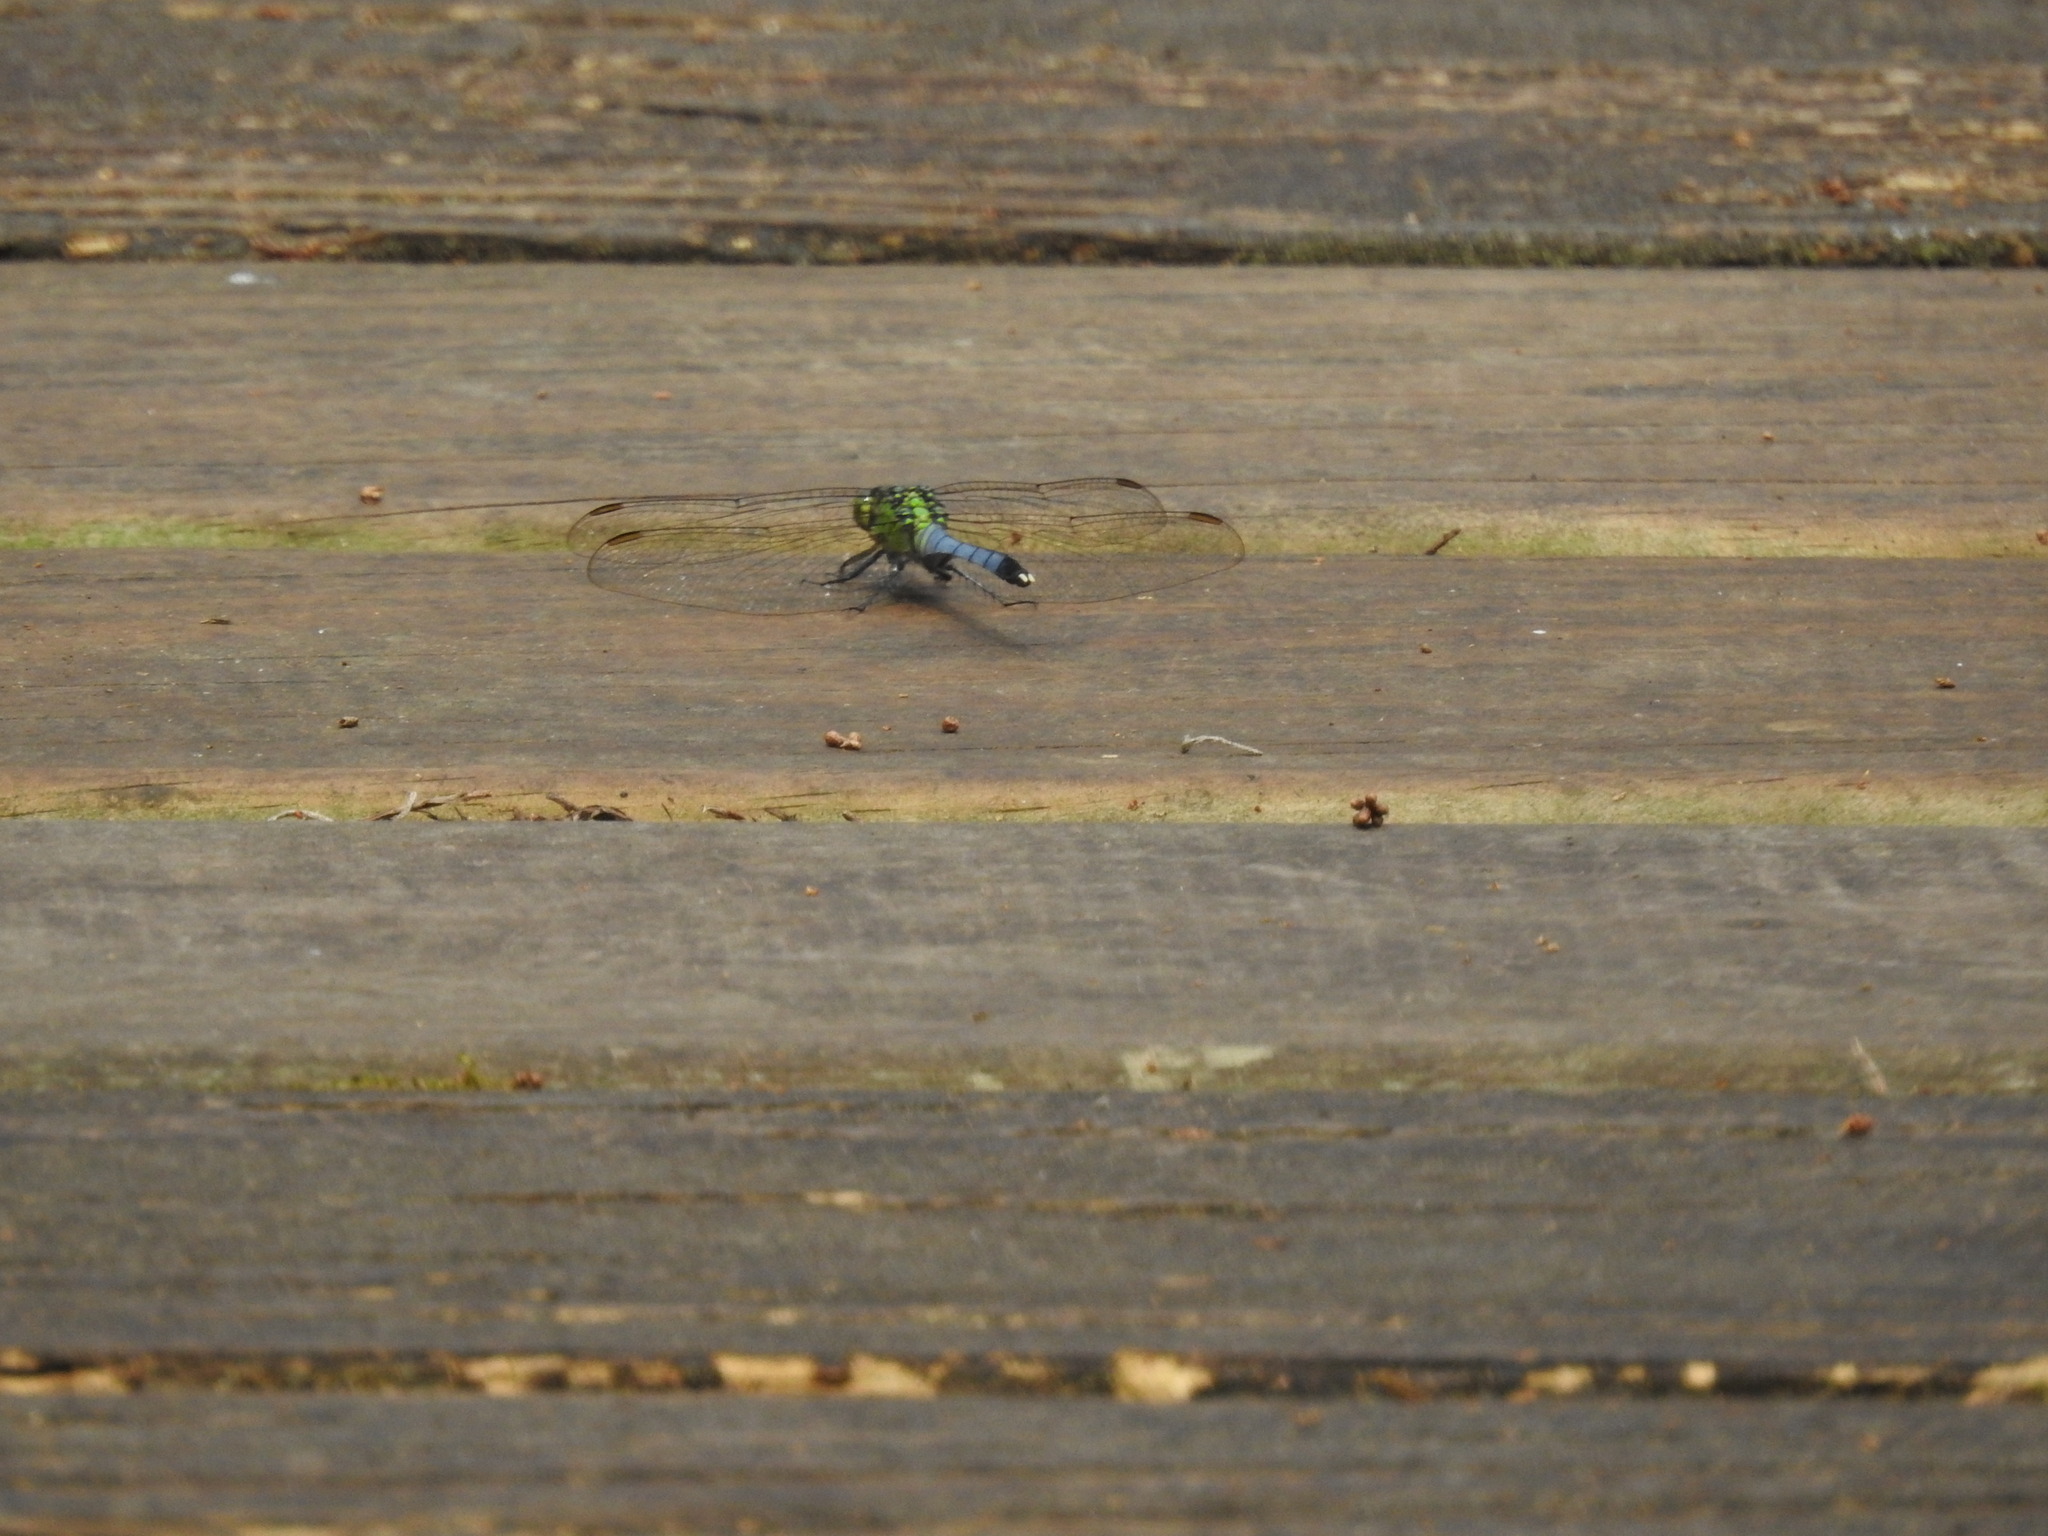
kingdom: Animalia
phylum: Arthropoda
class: Insecta
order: Odonata
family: Libellulidae
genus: Erythemis
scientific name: Erythemis simplicicollis
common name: Eastern pondhawk
